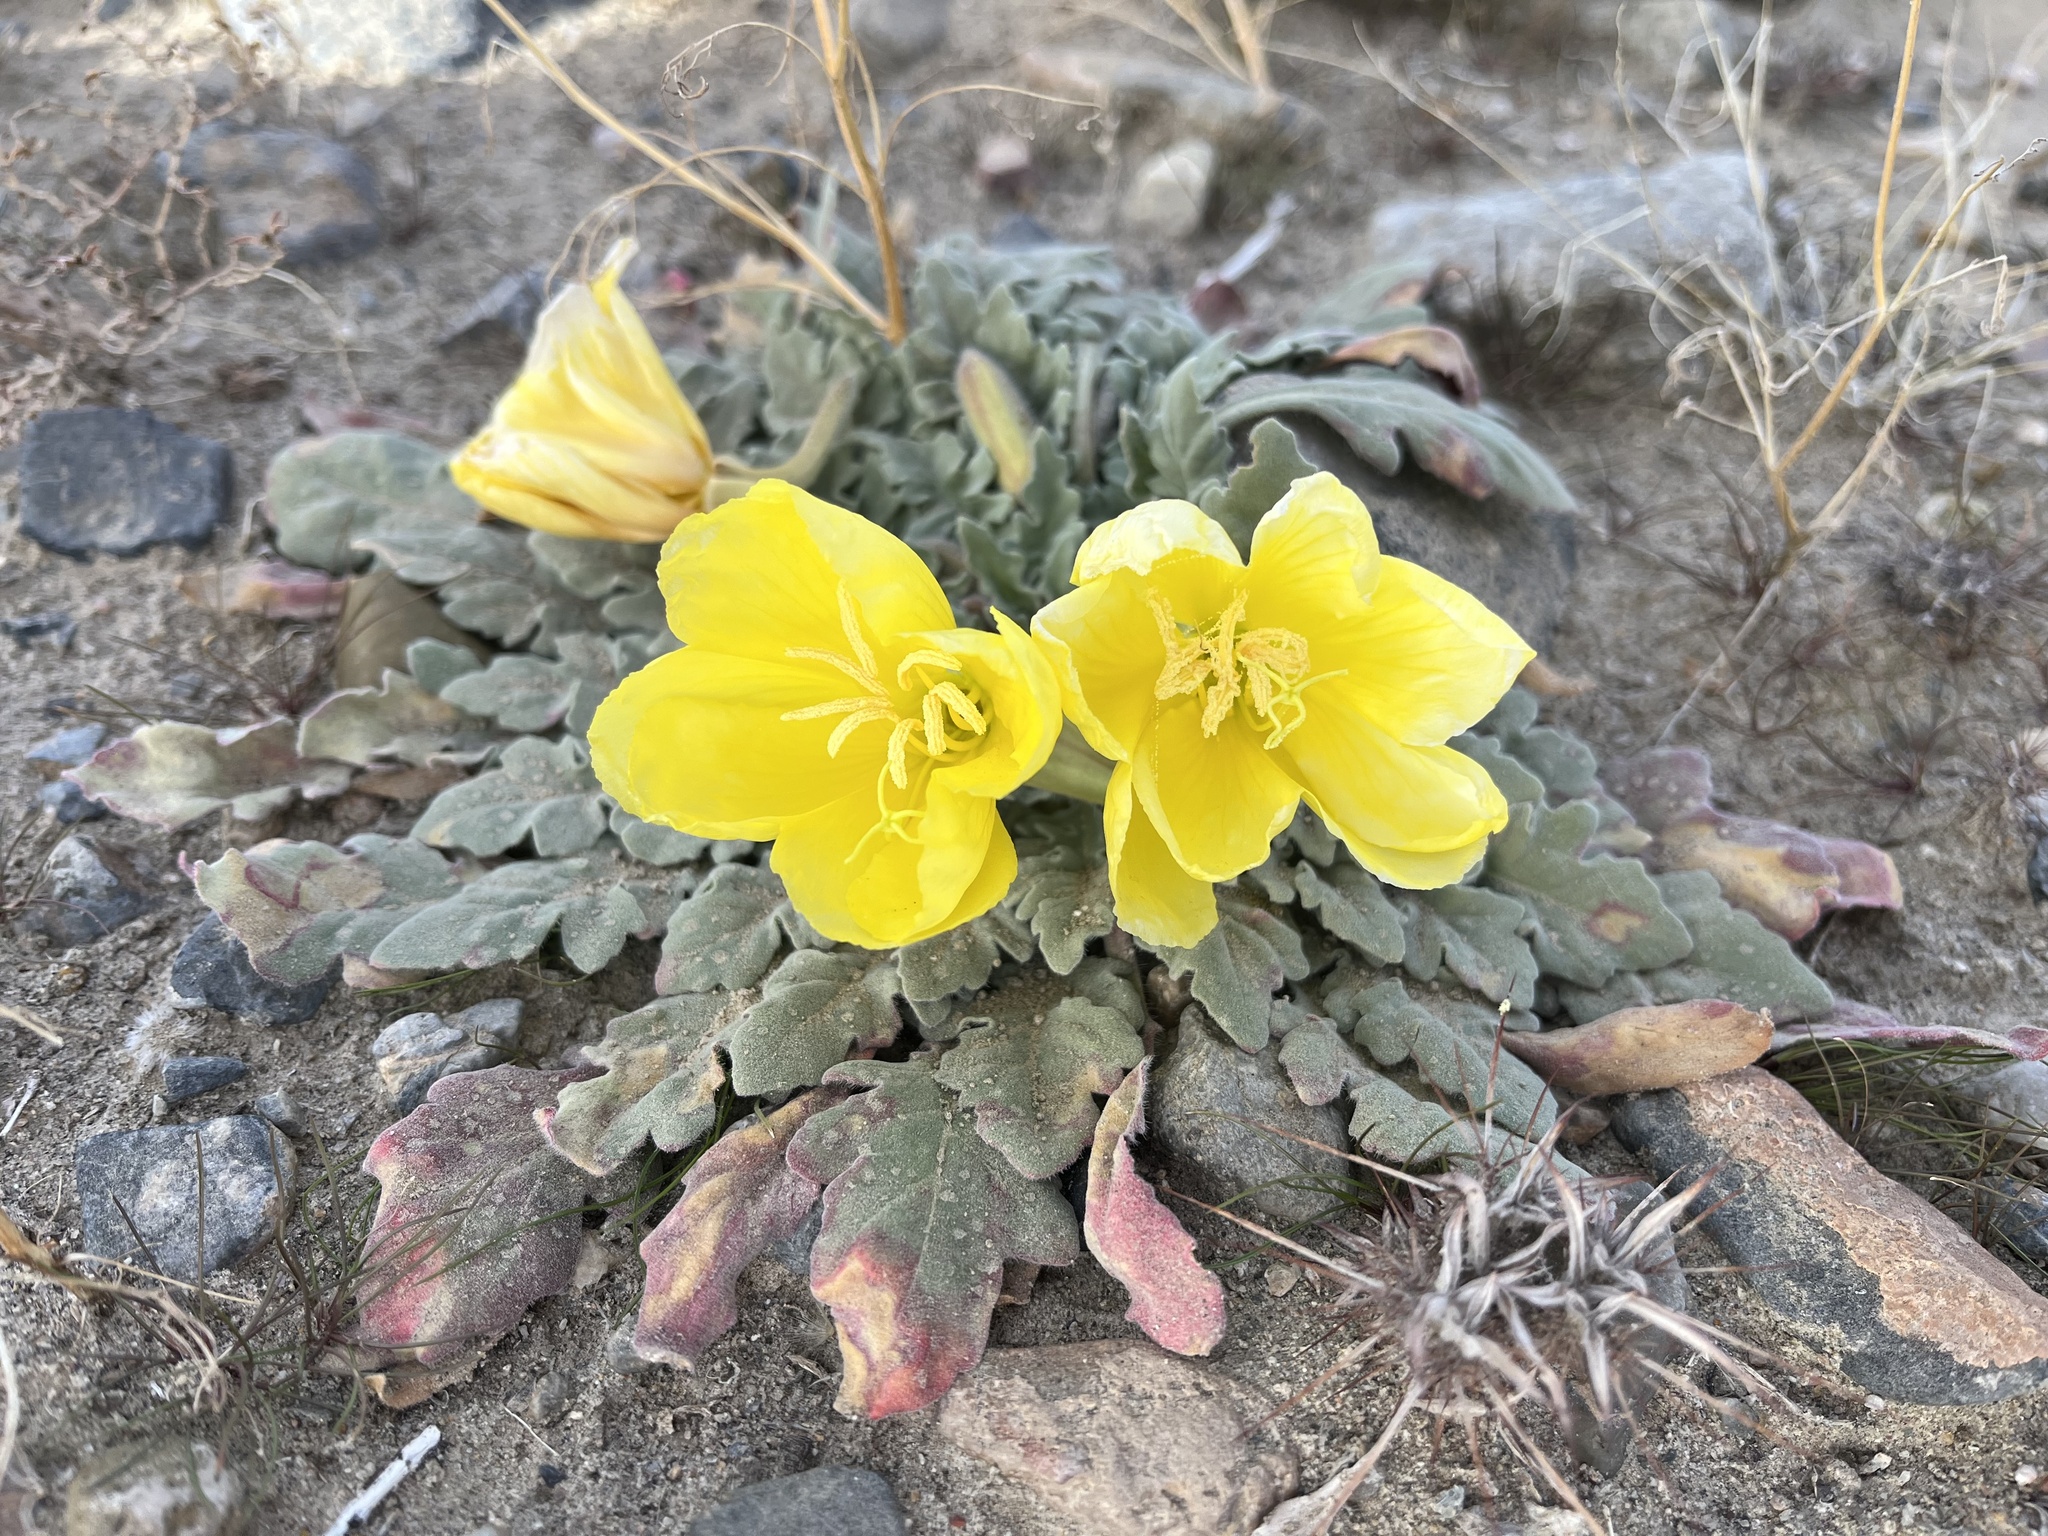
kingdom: Plantae
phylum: Tracheophyta
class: Magnoliopsida
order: Myrtales
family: Onagraceae
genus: Oenothera
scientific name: Oenothera primiveris
